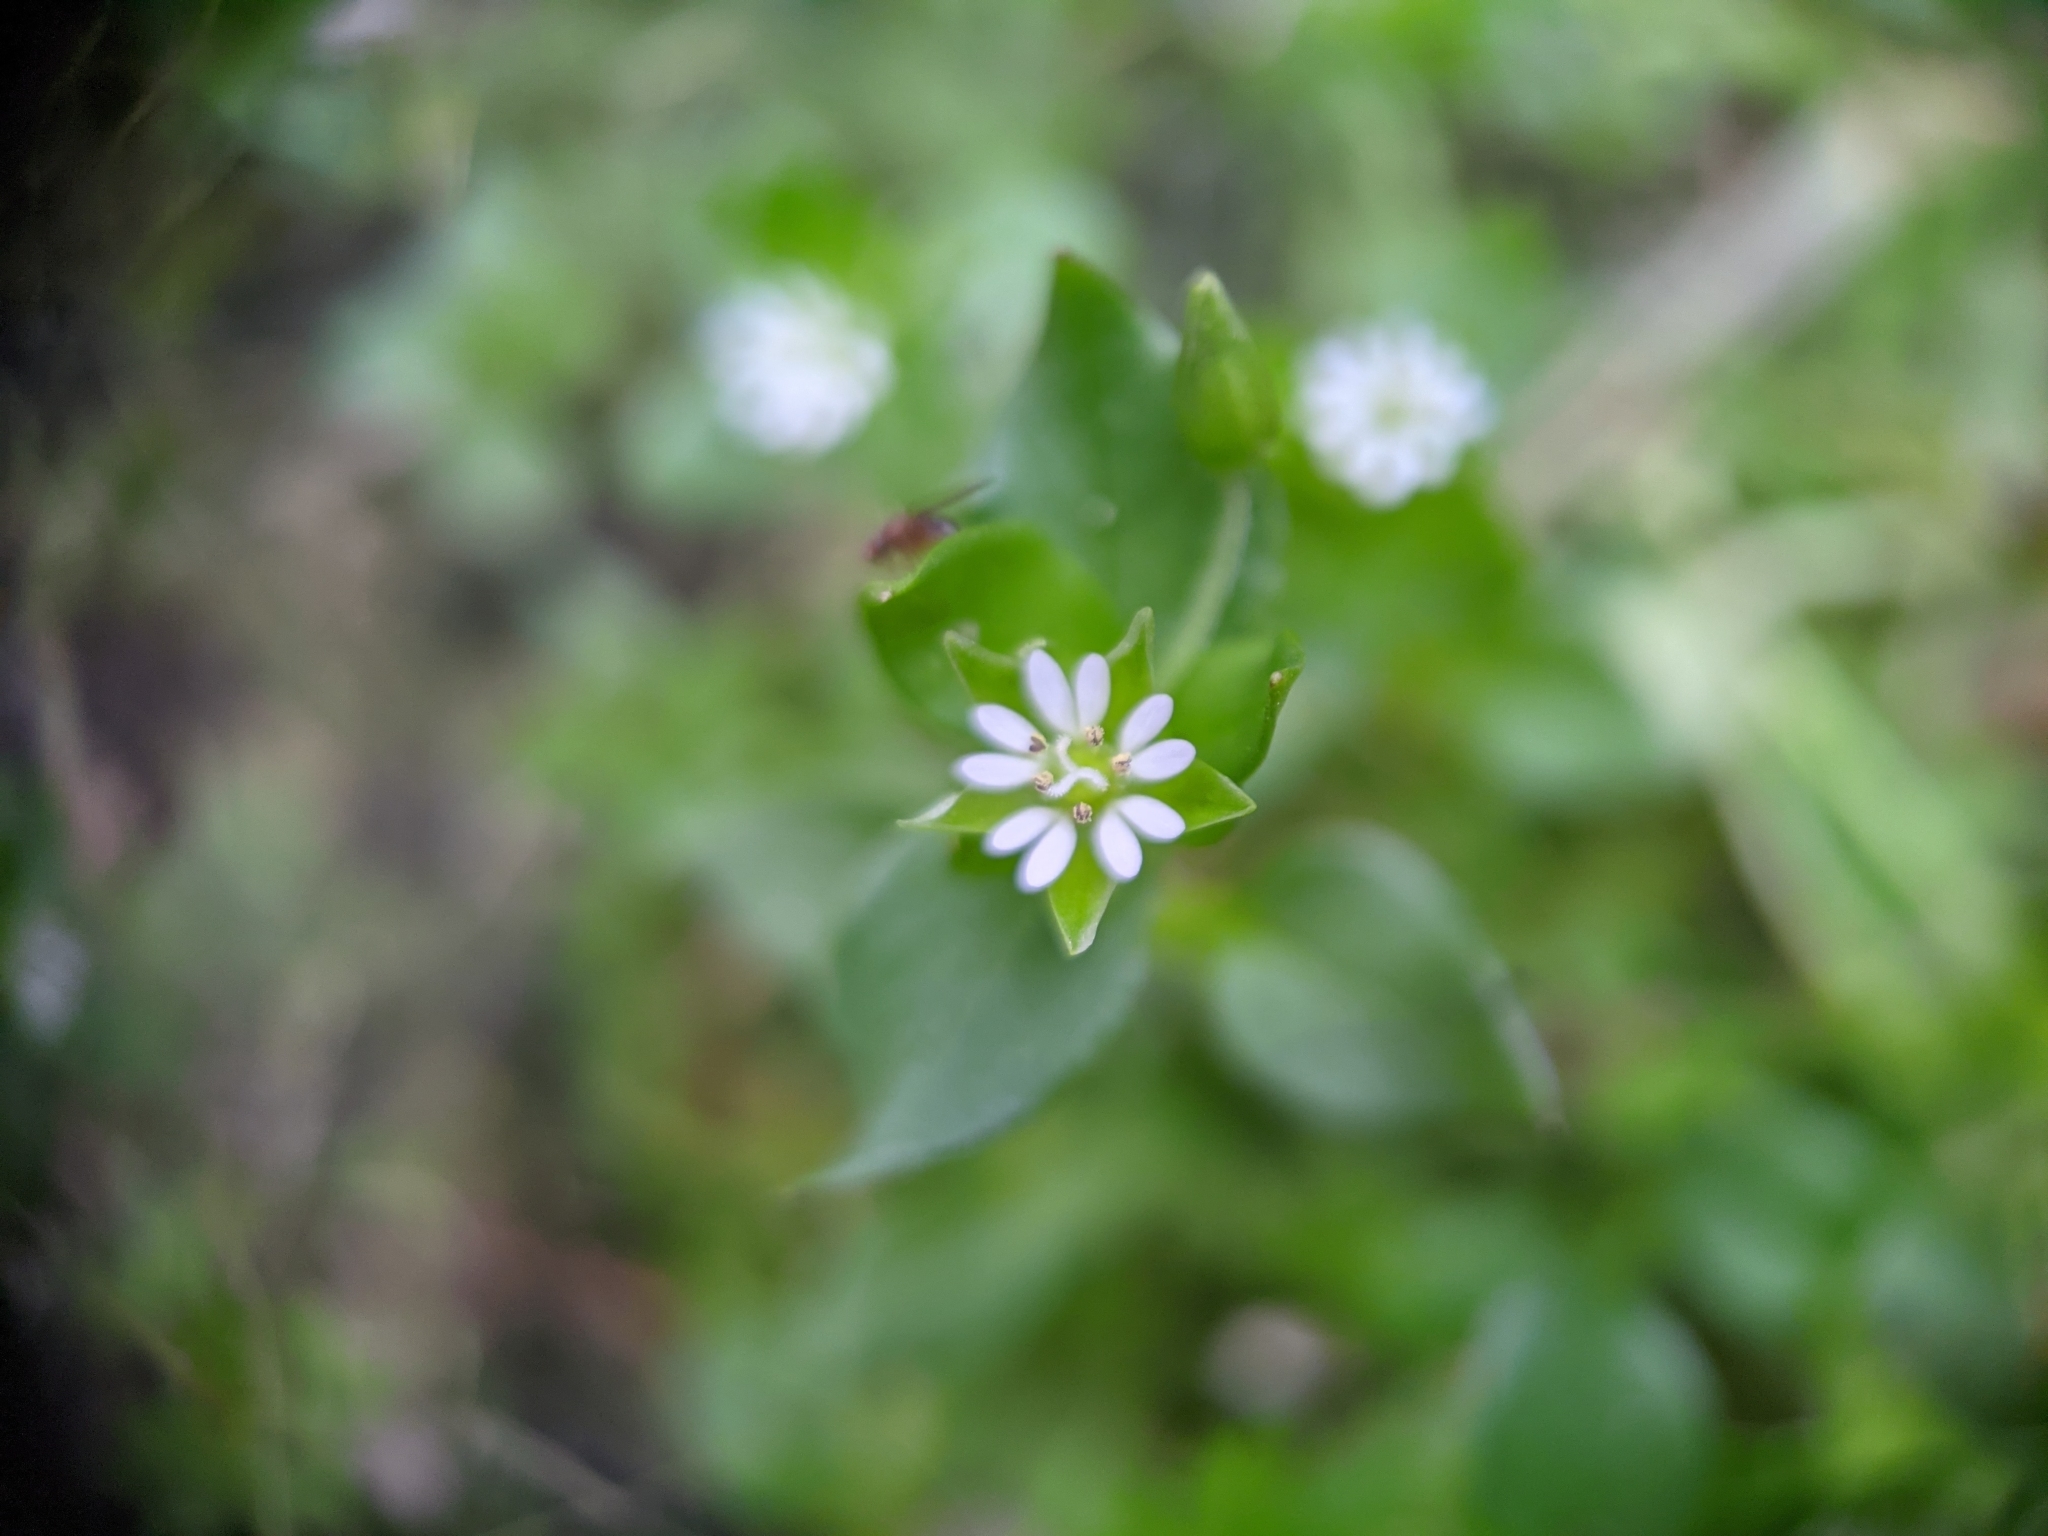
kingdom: Plantae
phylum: Tracheophyta
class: Magnoliopsida
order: Caryophyllales
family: Caryophyllaceae
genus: Stellaria
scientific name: Stellaria media
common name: Common chickweed
